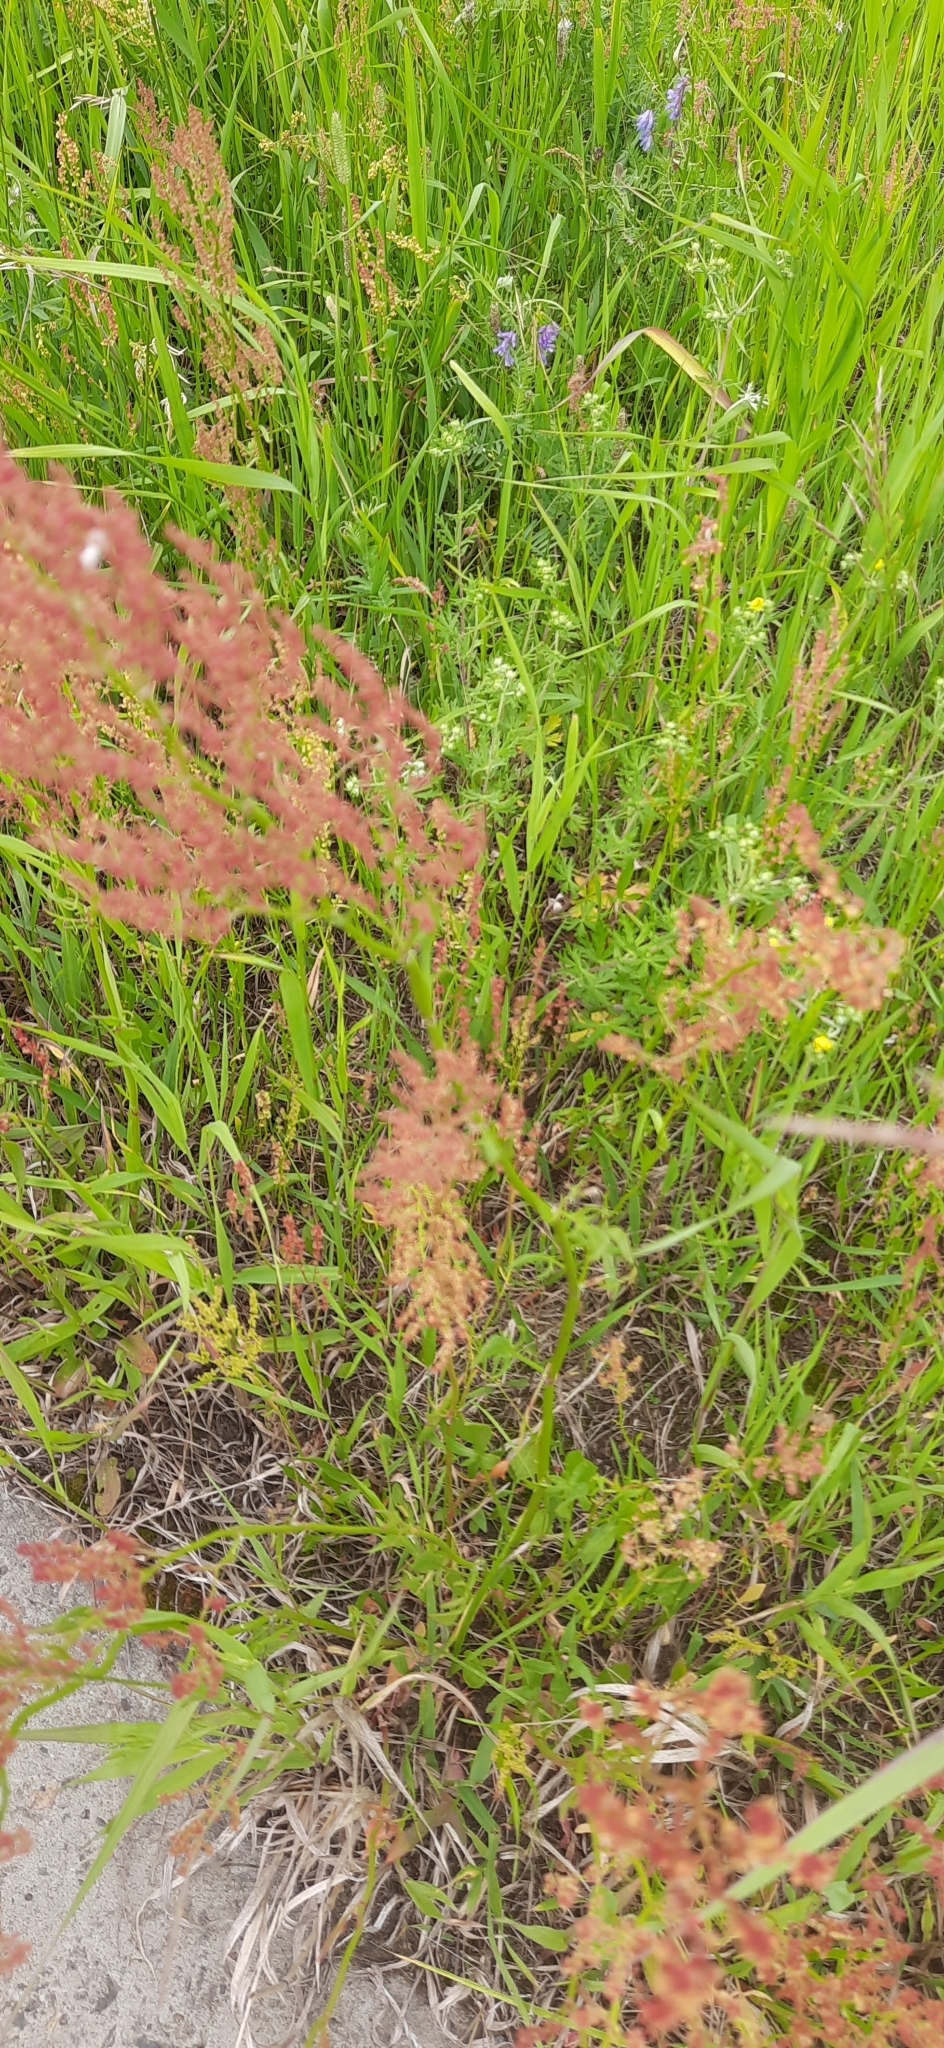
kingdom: Plantae
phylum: Tracheophyta
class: Magnoliopsida
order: Caryophyllales
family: Polygonaceae
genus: Rumex
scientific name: Rumex acetosella
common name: Common sheep sorrel
